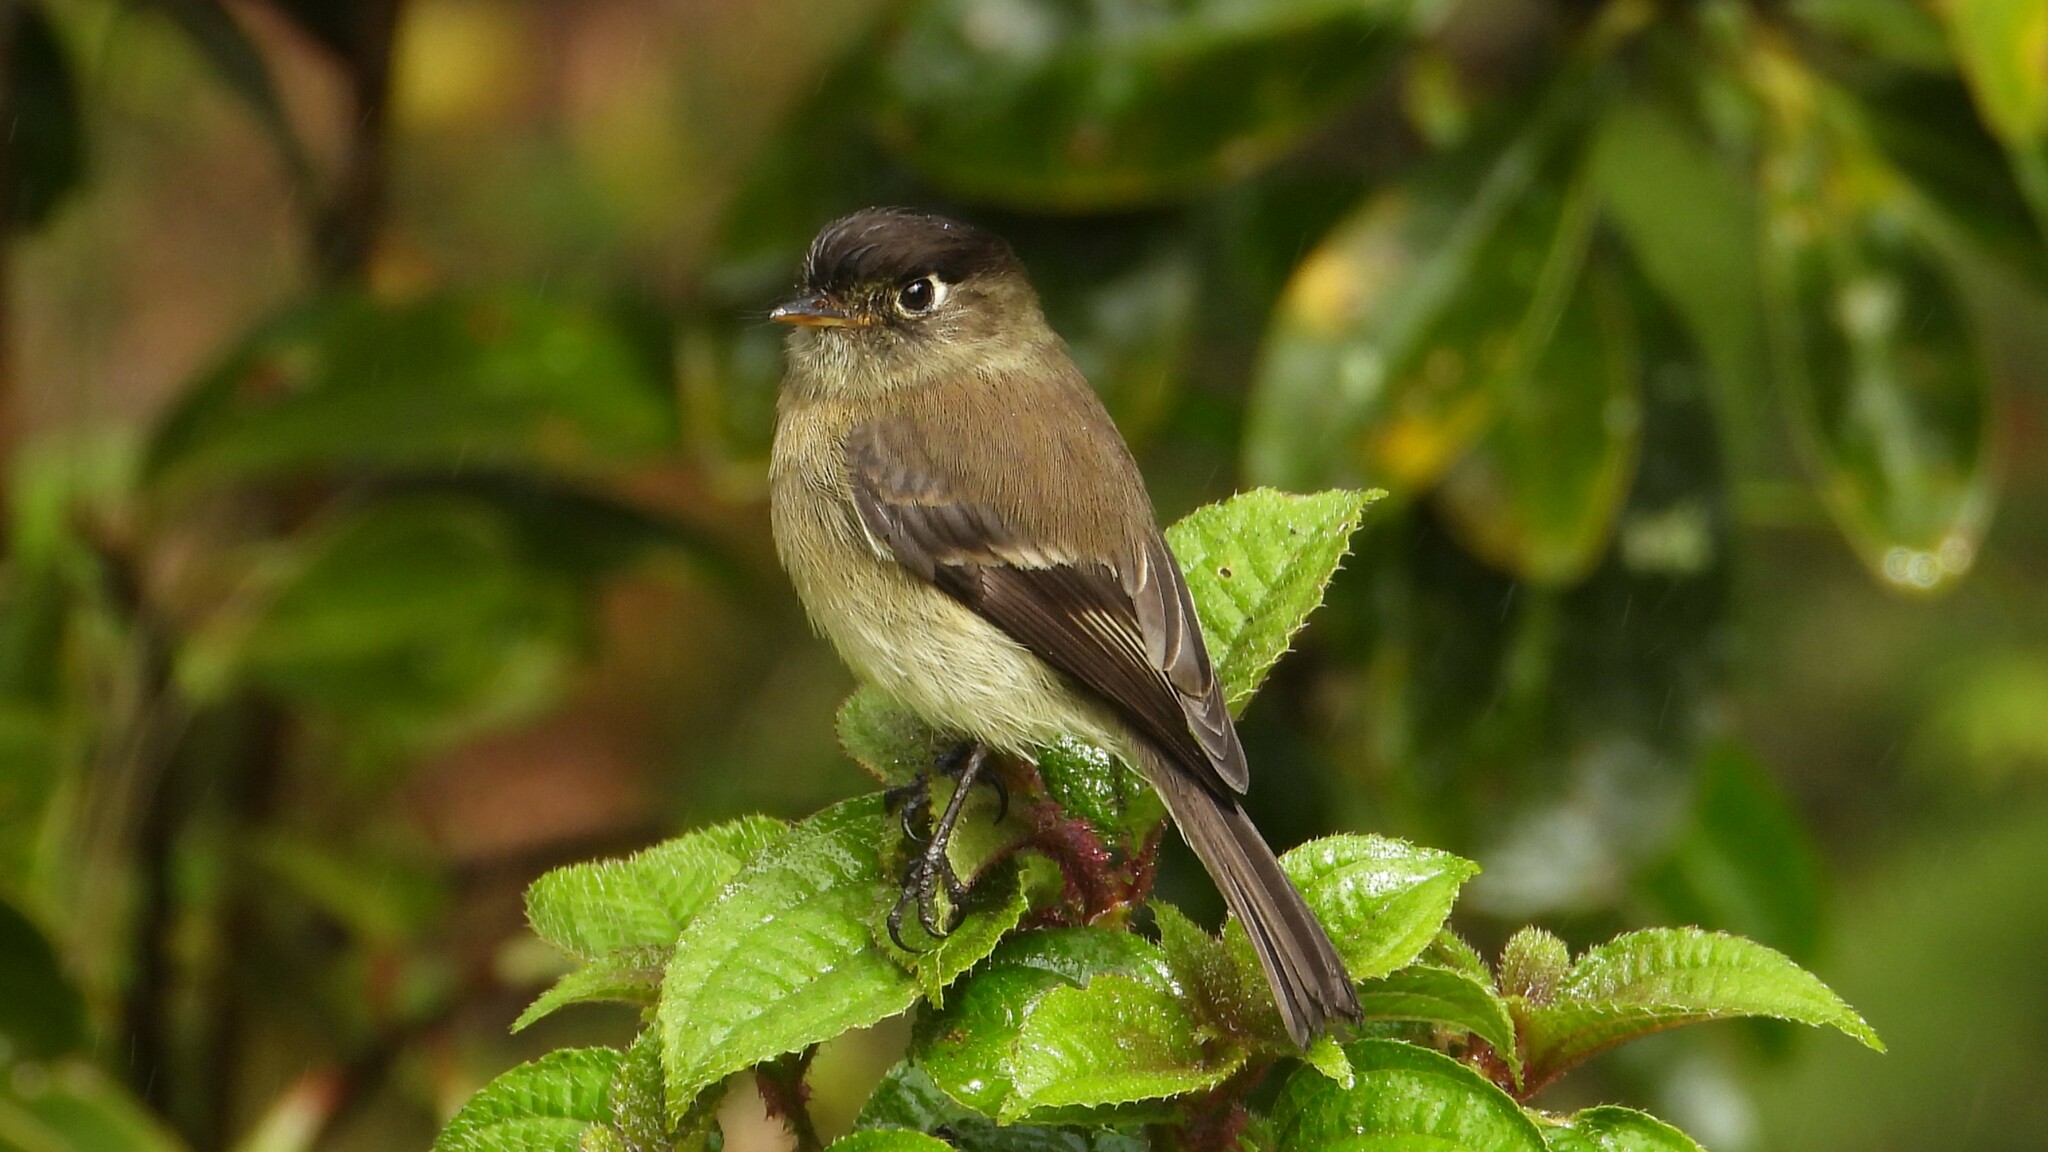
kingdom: Animalia
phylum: Chordata
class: Aves
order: Passeriformes
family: Tyrannidae
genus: Empidonax
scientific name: Empidonax atriceps
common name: Black-capped flycatcher
